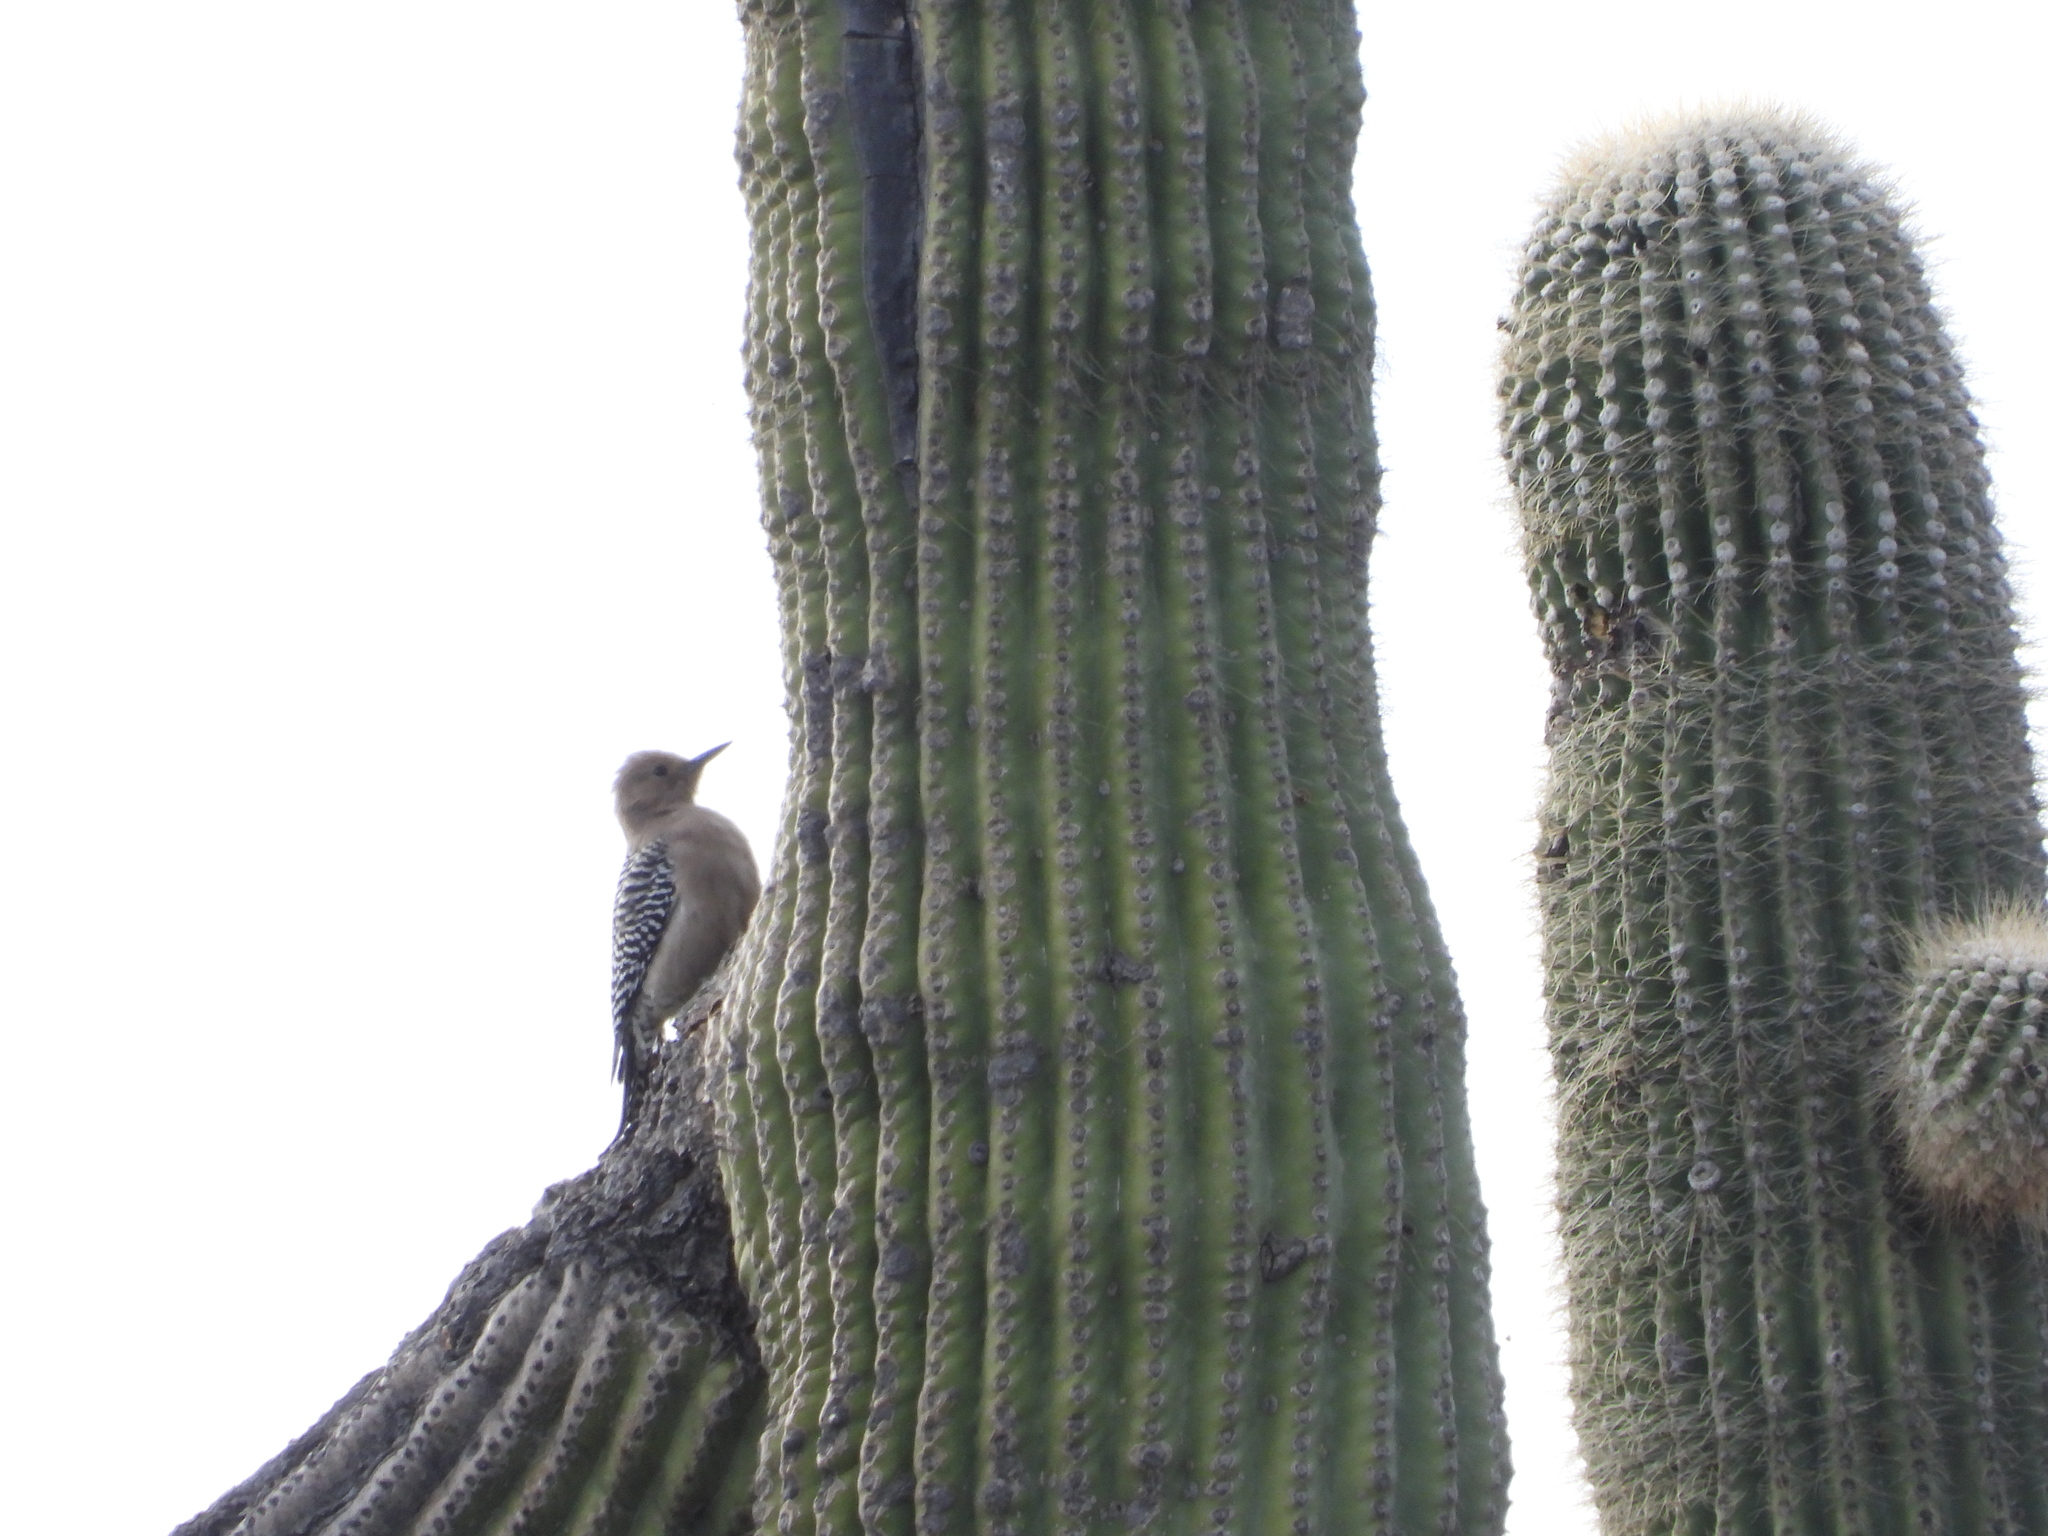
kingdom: Animalia
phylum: Chordata
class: Aves
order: Piciformes
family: Picidae
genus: Melanerpes
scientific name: Melanerpes uropygialis
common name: Gila woodpecker
